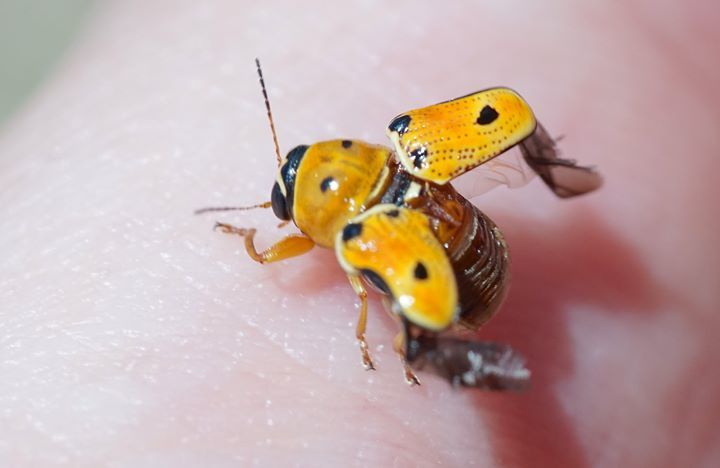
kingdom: Animalia
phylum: Arthropoda
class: Insecta
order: Coleoptera
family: Chrysomelidae
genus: Griburius
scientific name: Griburius larvatus
